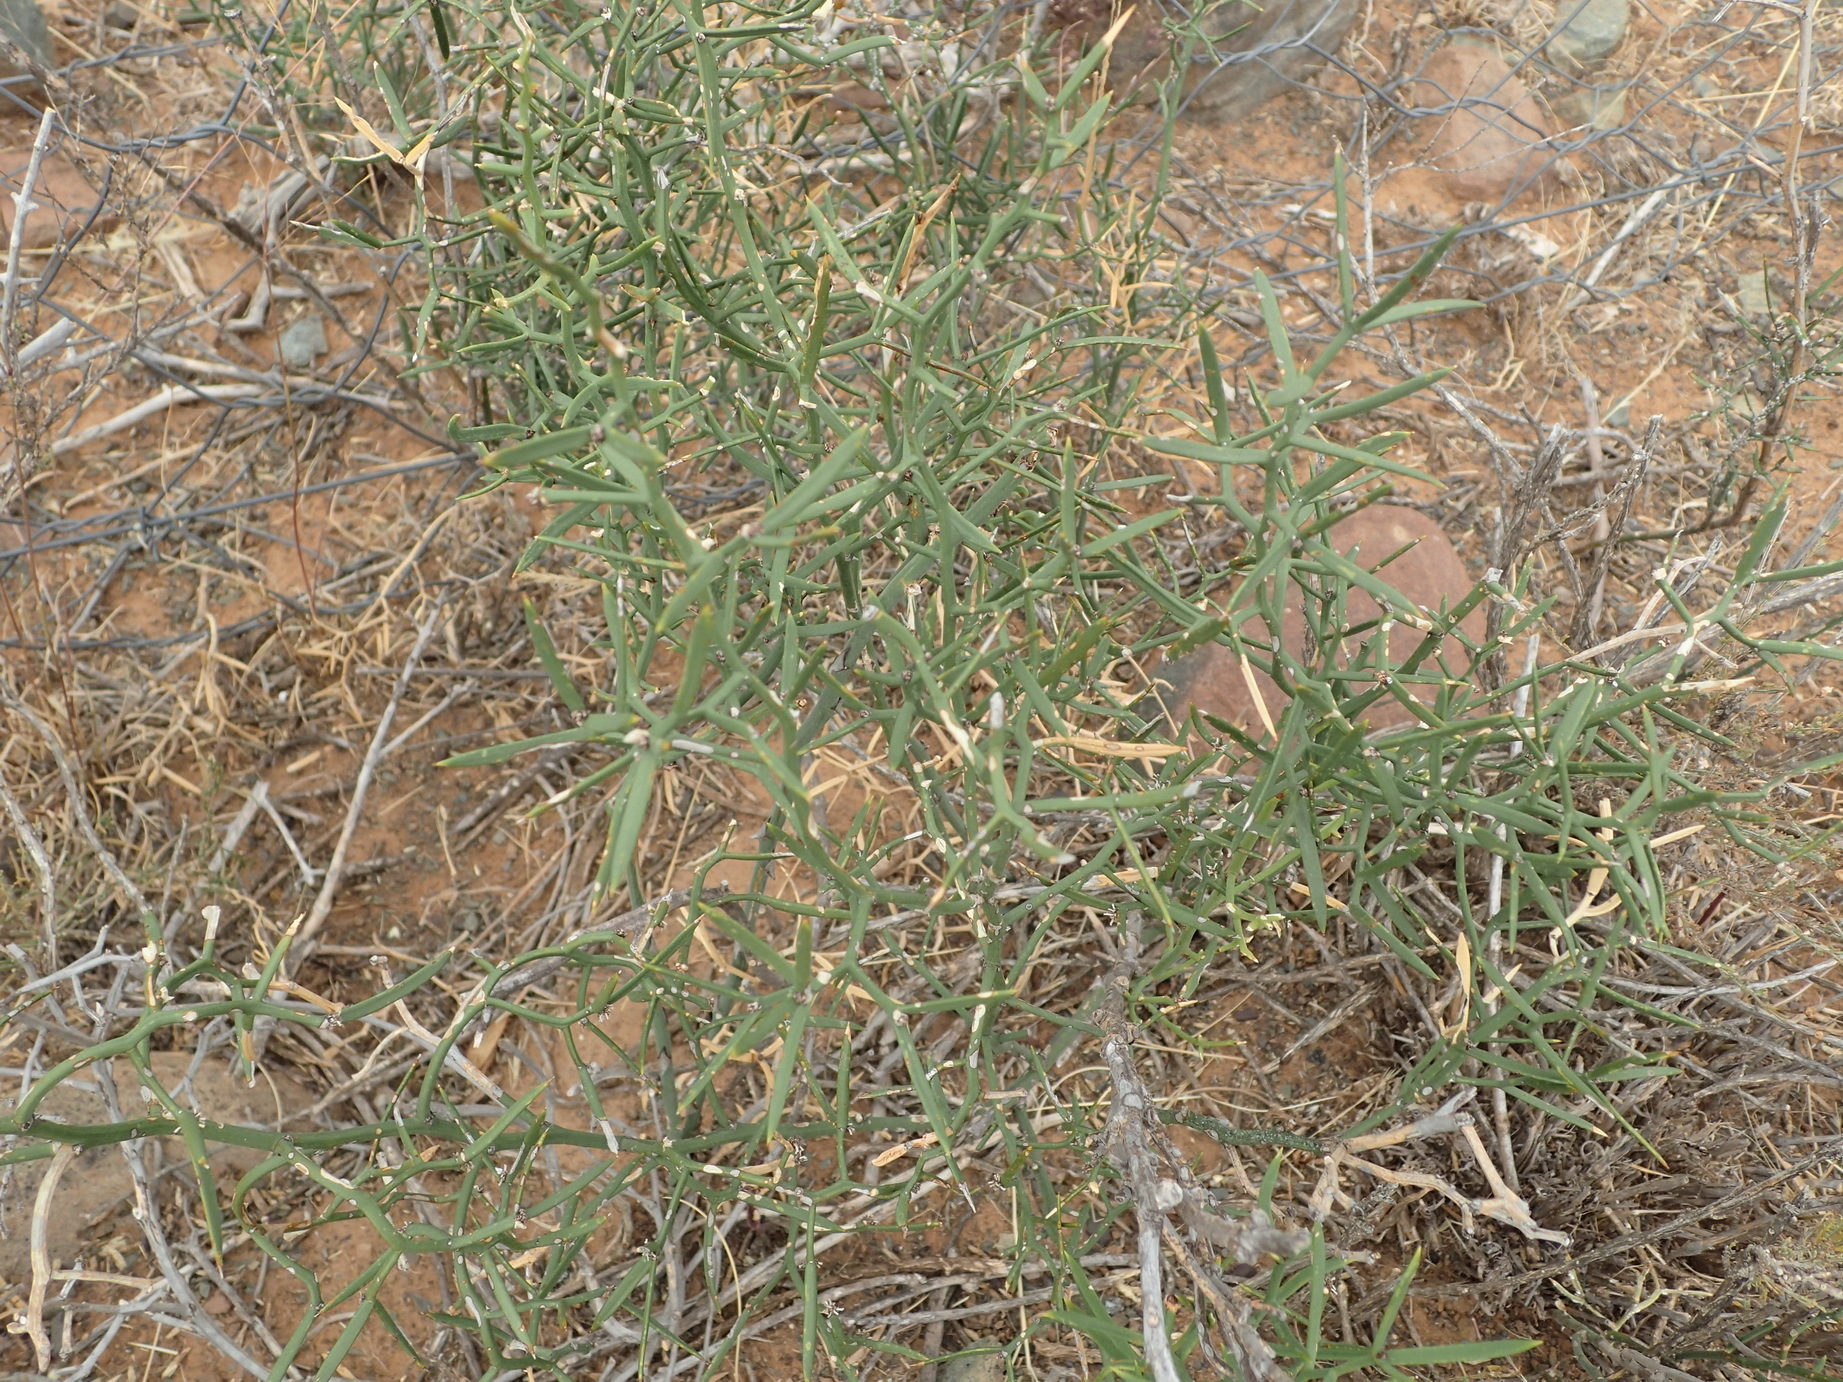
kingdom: Plantae
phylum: Tracheophyta
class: Liliopsida
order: Asparagales
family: Asparagaceae
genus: Asparagus
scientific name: Asparagus striatus
